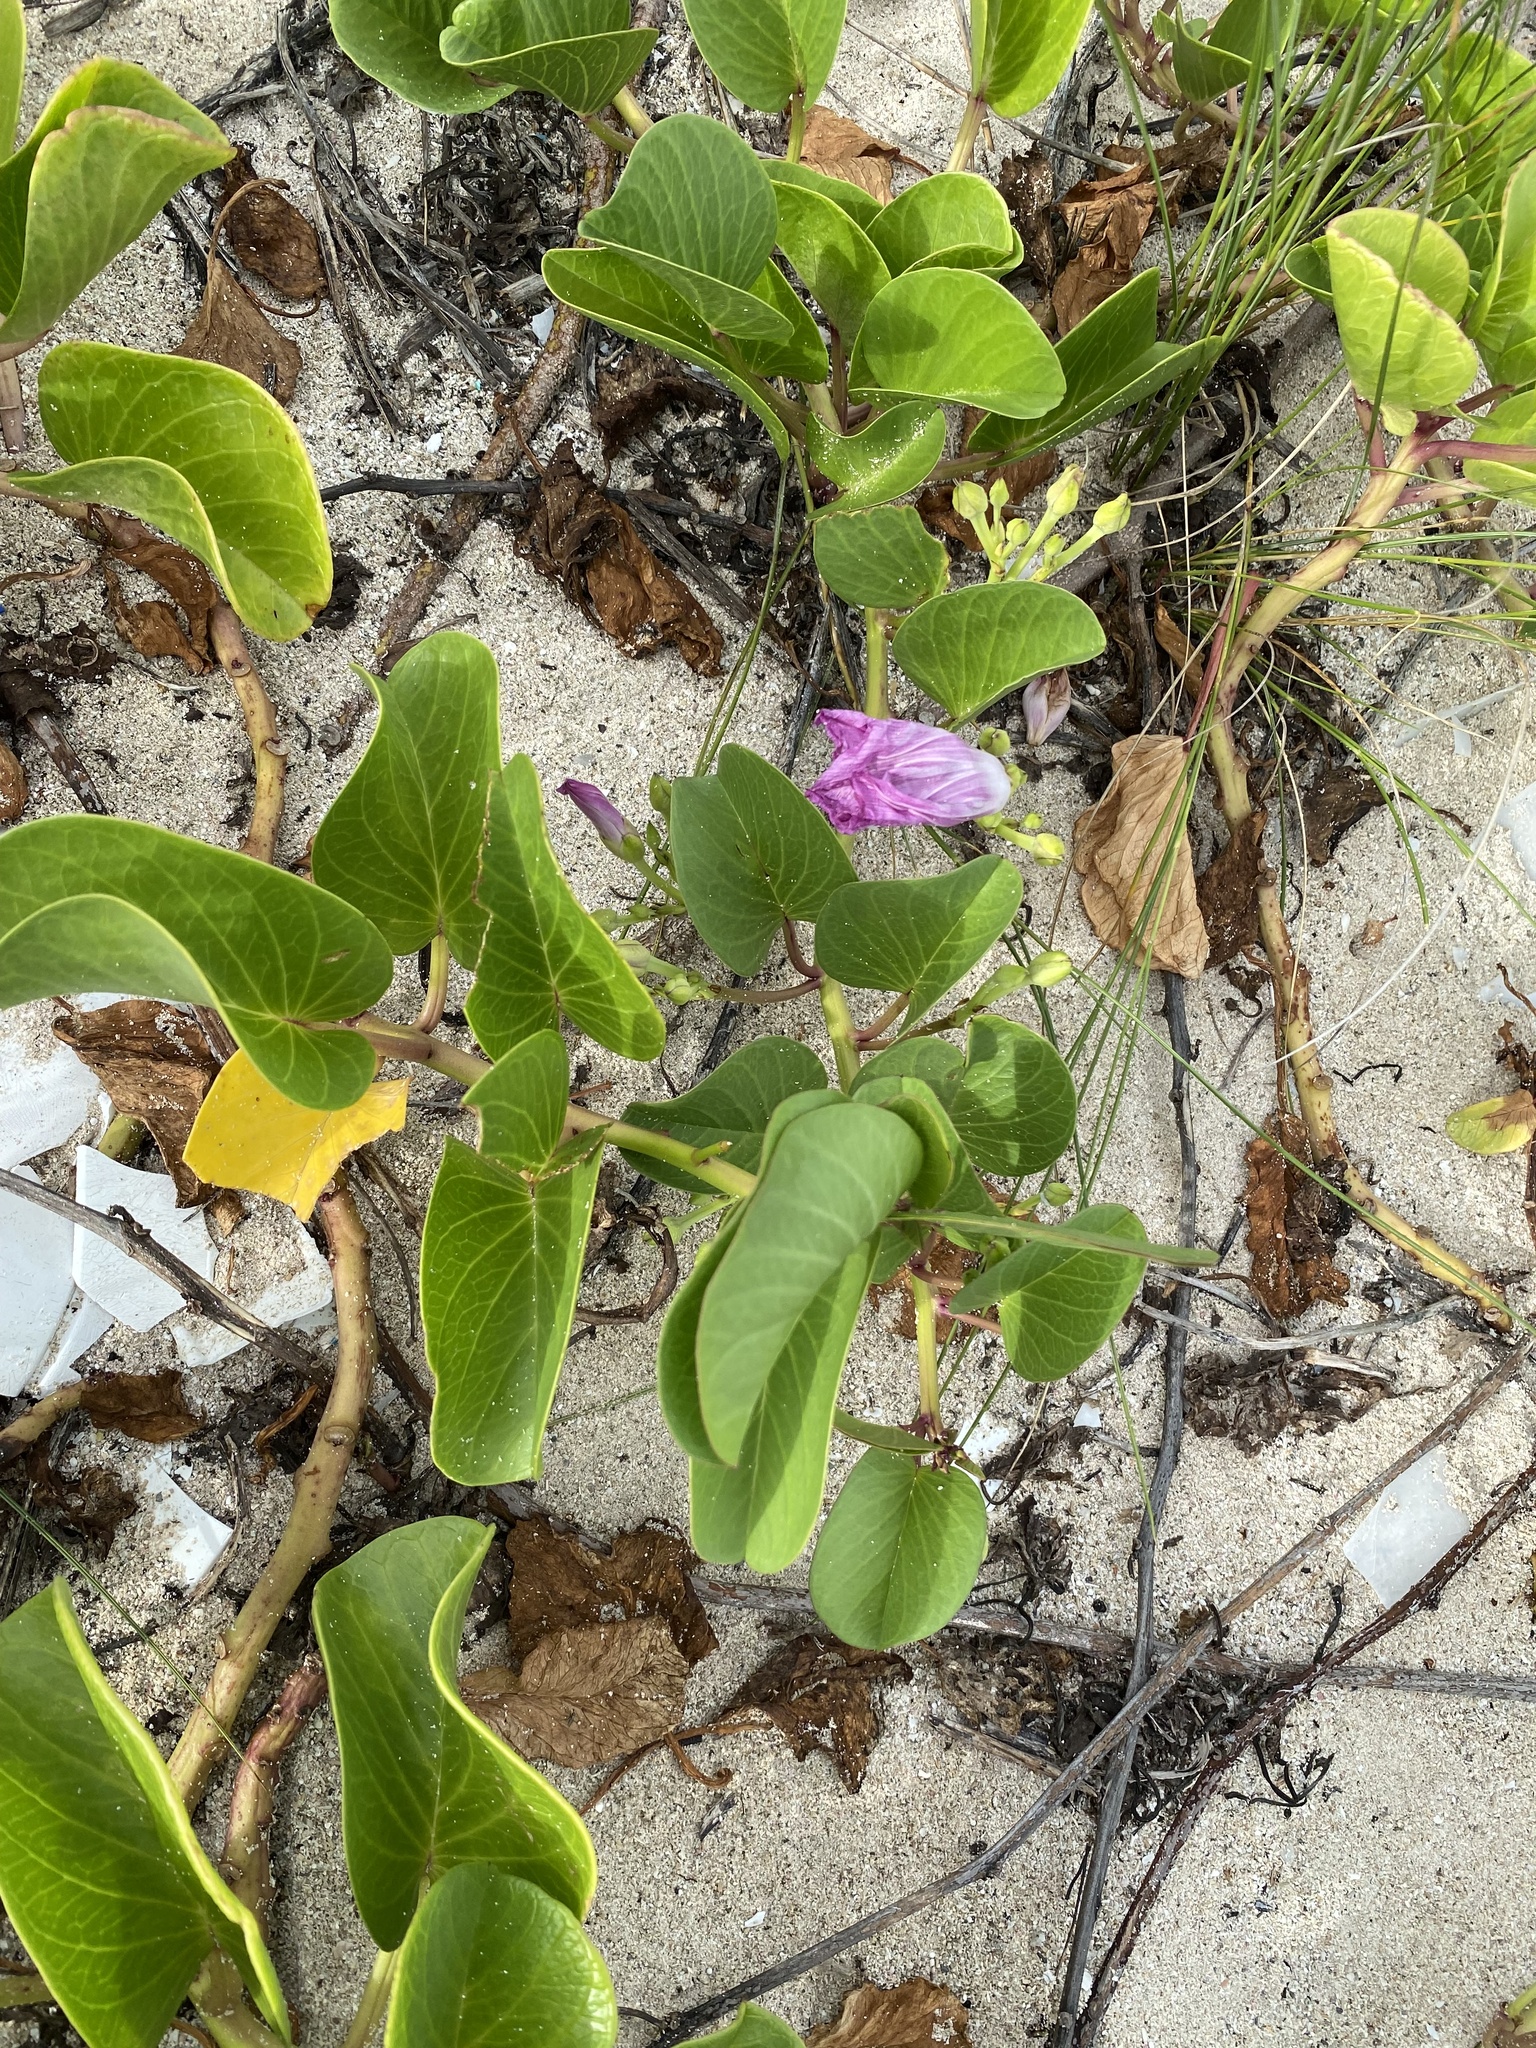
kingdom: Plantae
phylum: Tracheophyta
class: Magnoliopsida
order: Solanales
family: Convolvulaceae
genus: Ipomoea
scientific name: Ipomoea pes-caprae
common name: Beach morning glory
